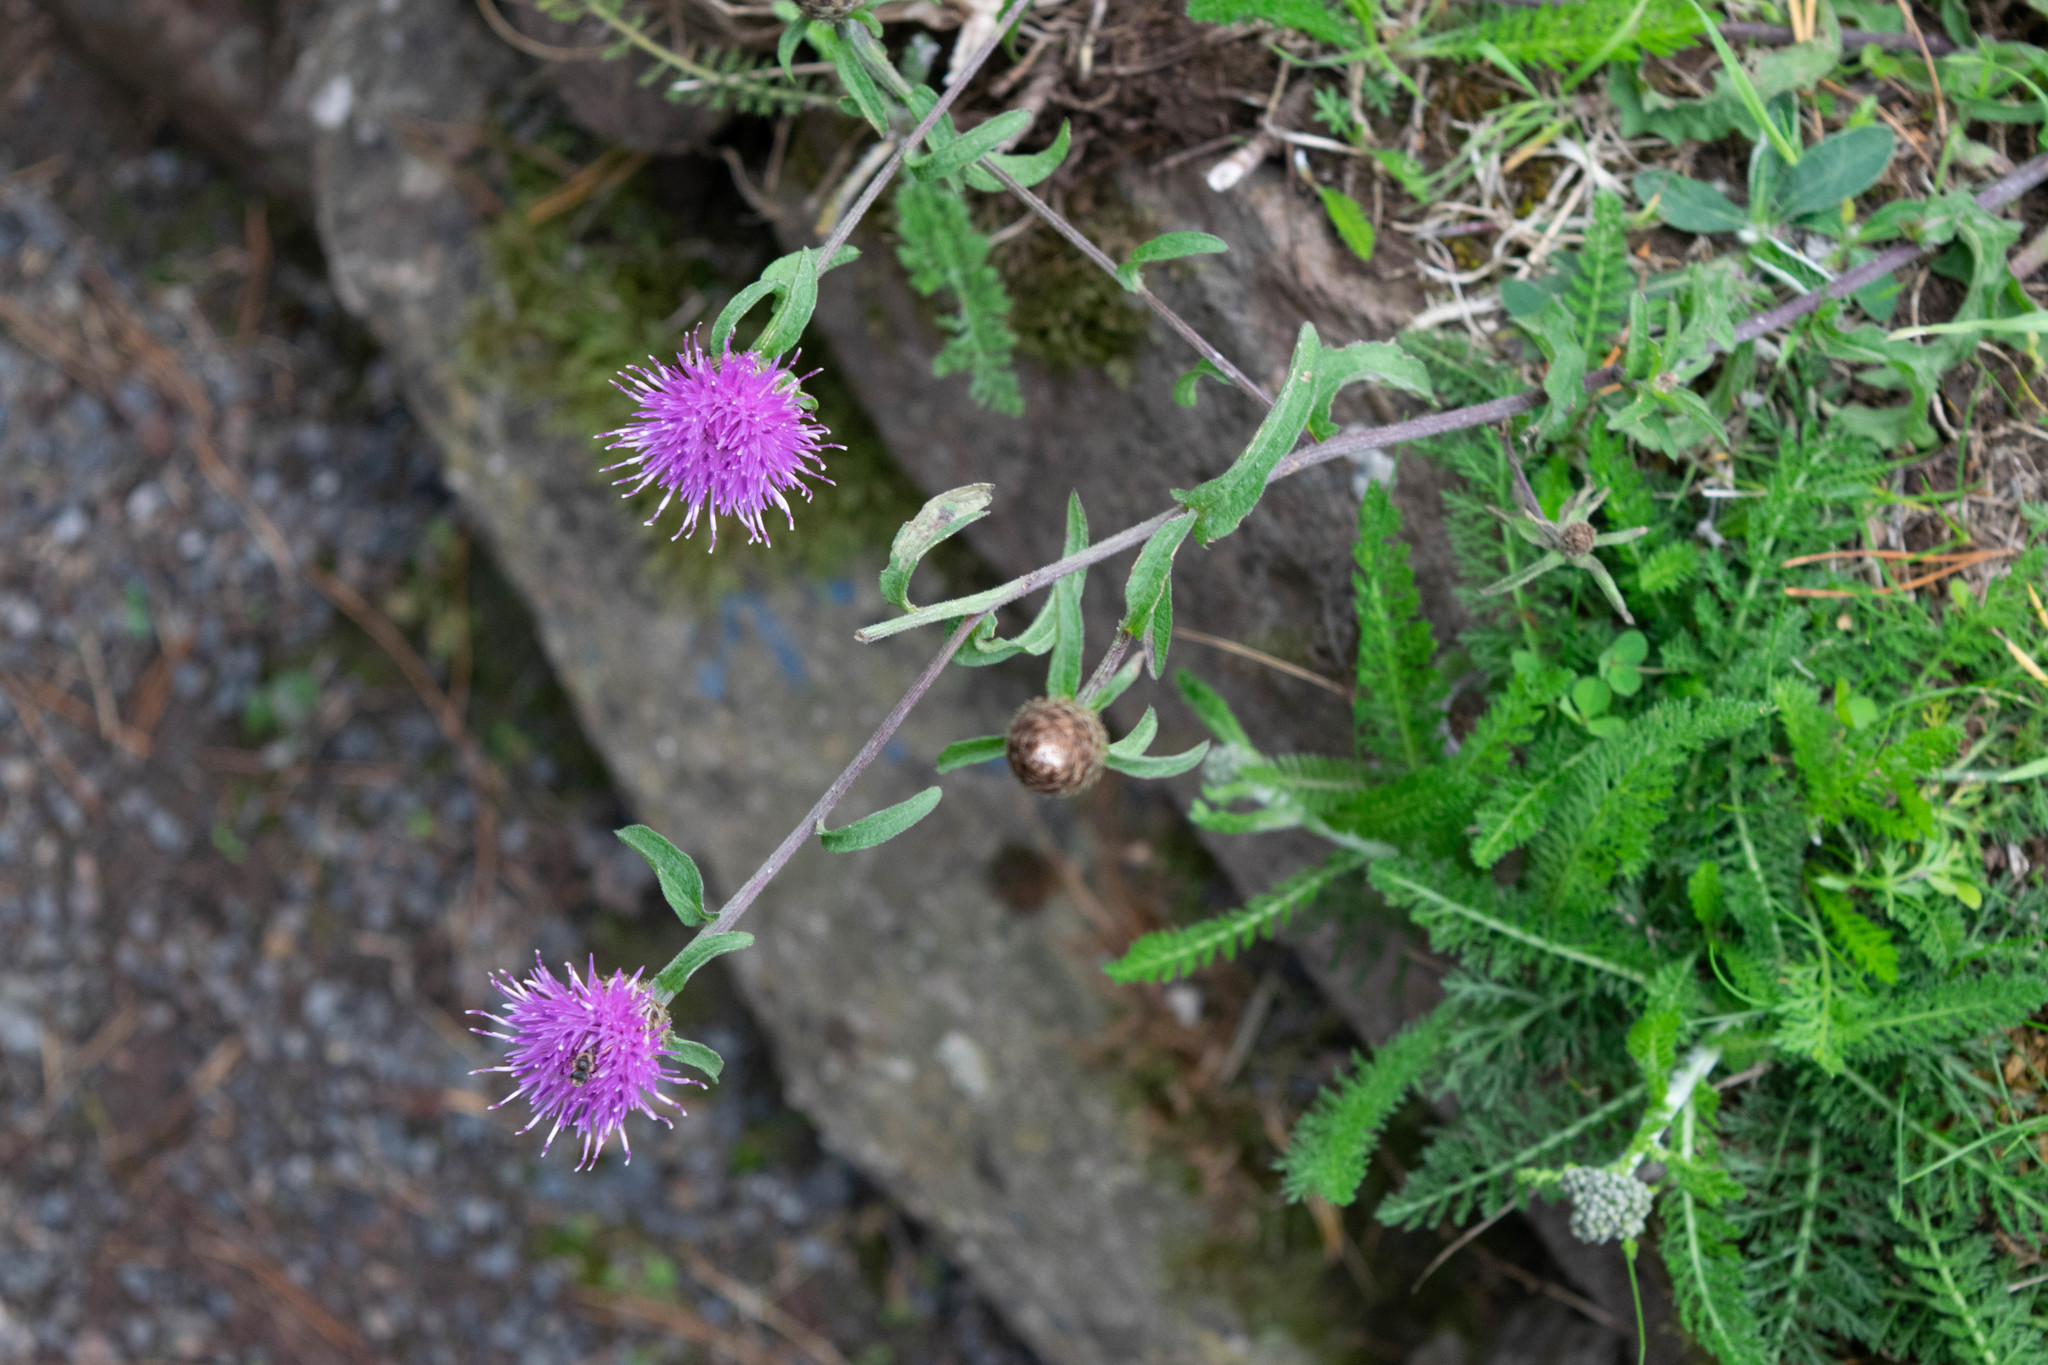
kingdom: Plantae
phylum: Tracheophyta
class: Magnoliopsida
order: Asterales
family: Asteraceae
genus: Centaurea
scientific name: Centaurea nigra
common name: Lesser knapweed
